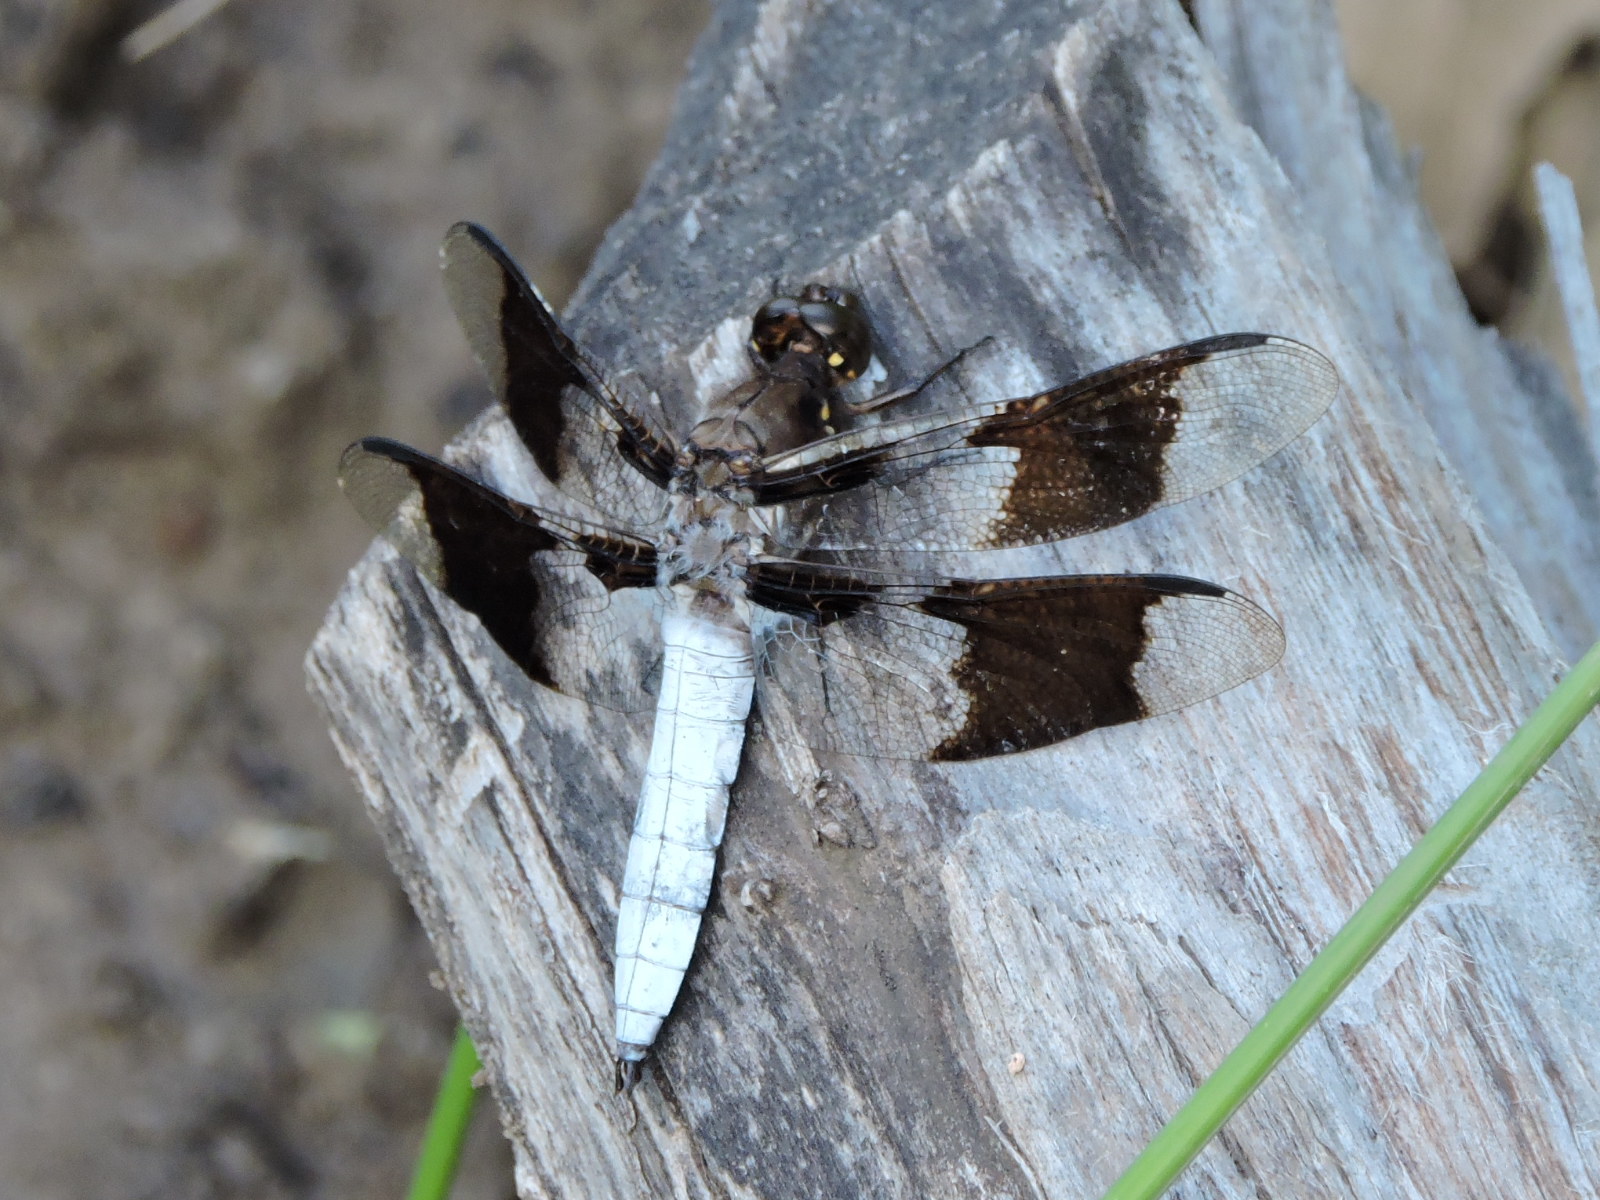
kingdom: Animalia
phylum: Arthropoda
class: Insecta
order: Odonata
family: Libellulidae
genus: Plathemis
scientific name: Plathemis lydia
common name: Common whitetail
